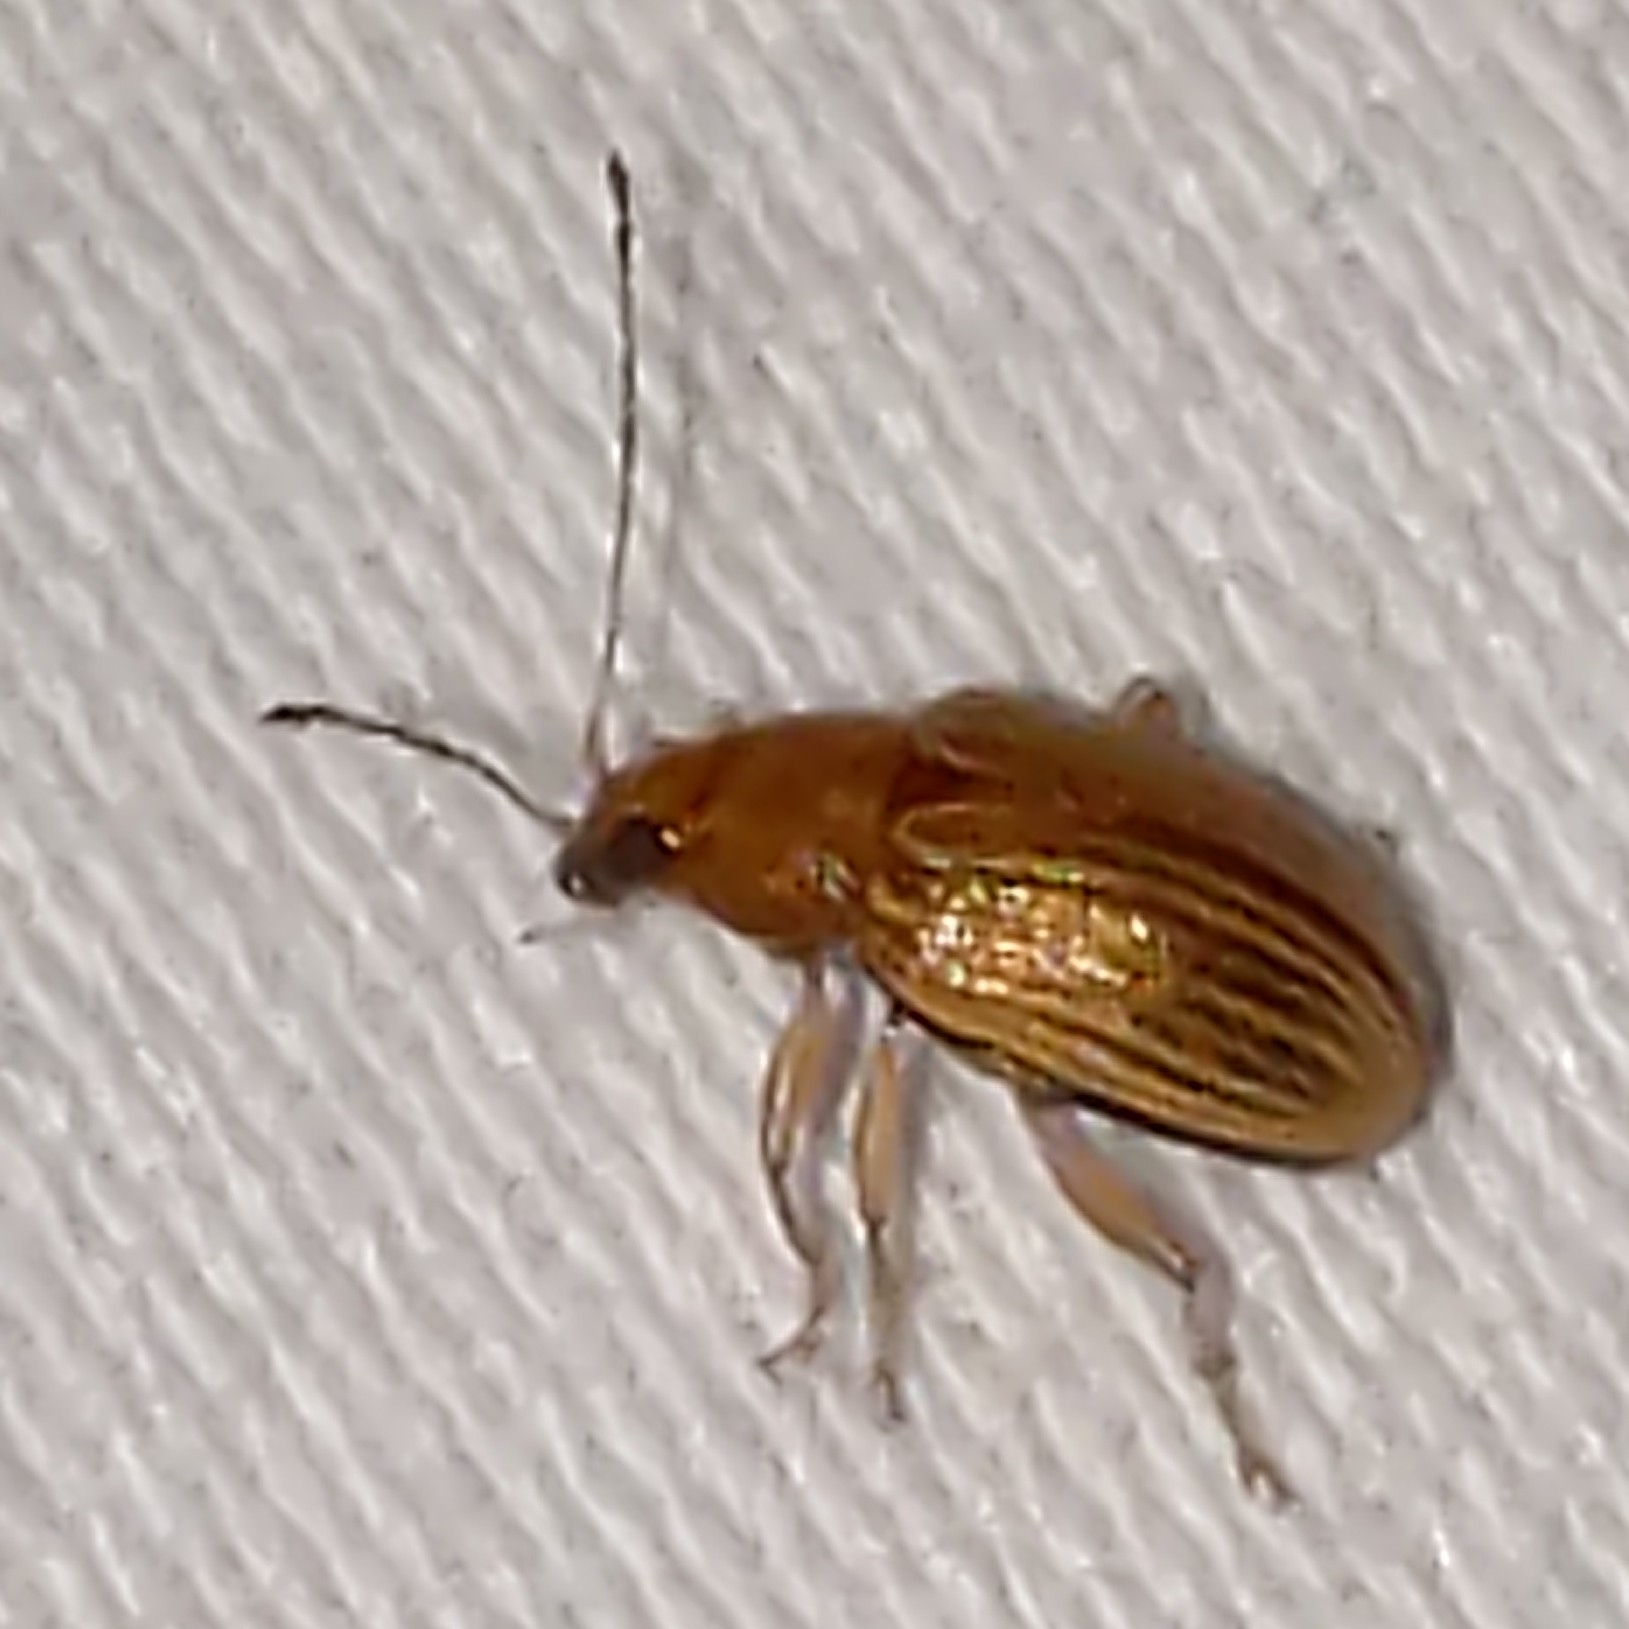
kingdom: Animalia
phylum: Arthropoda
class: Insecta
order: Coleoptera
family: Chrysomelidae
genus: Colaspis
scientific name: Colaspis brunnea
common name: Grape colaspis
